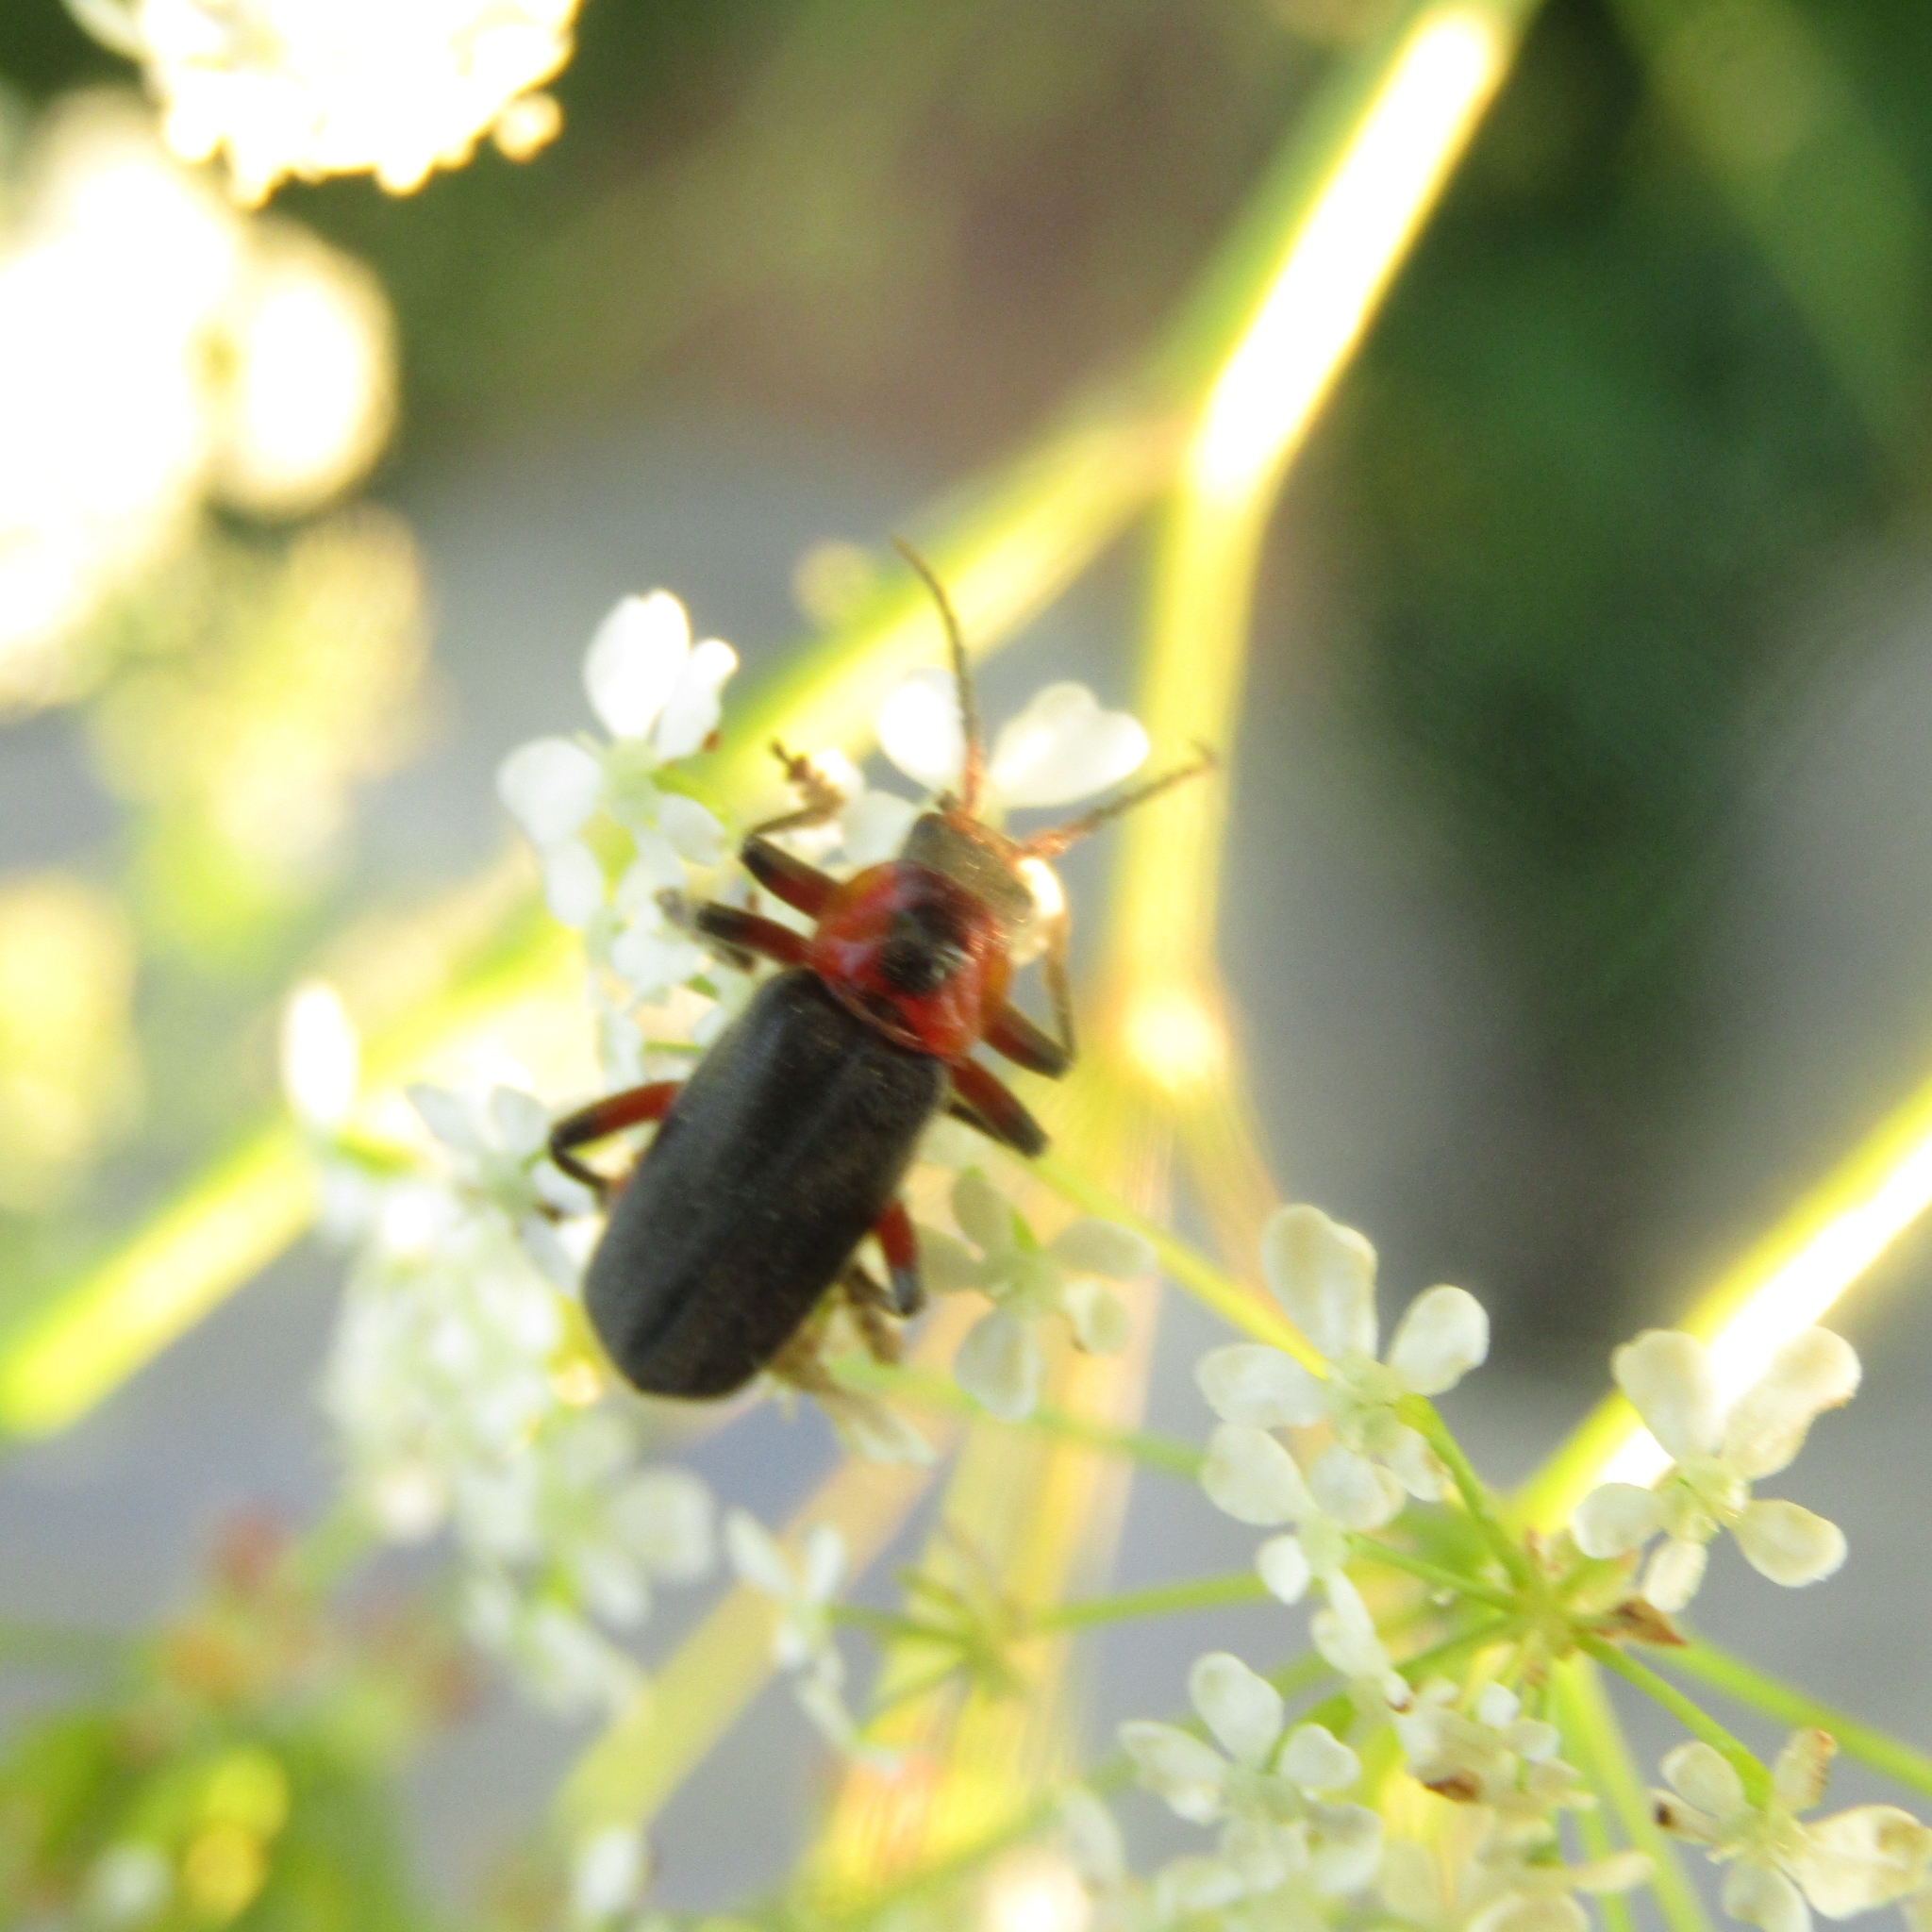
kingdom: Animalia
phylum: Arthropoda
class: Insecta
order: Coleoptera
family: Cantharidae
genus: Cantharis
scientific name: Cantharis rustica
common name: Soldier beetle
